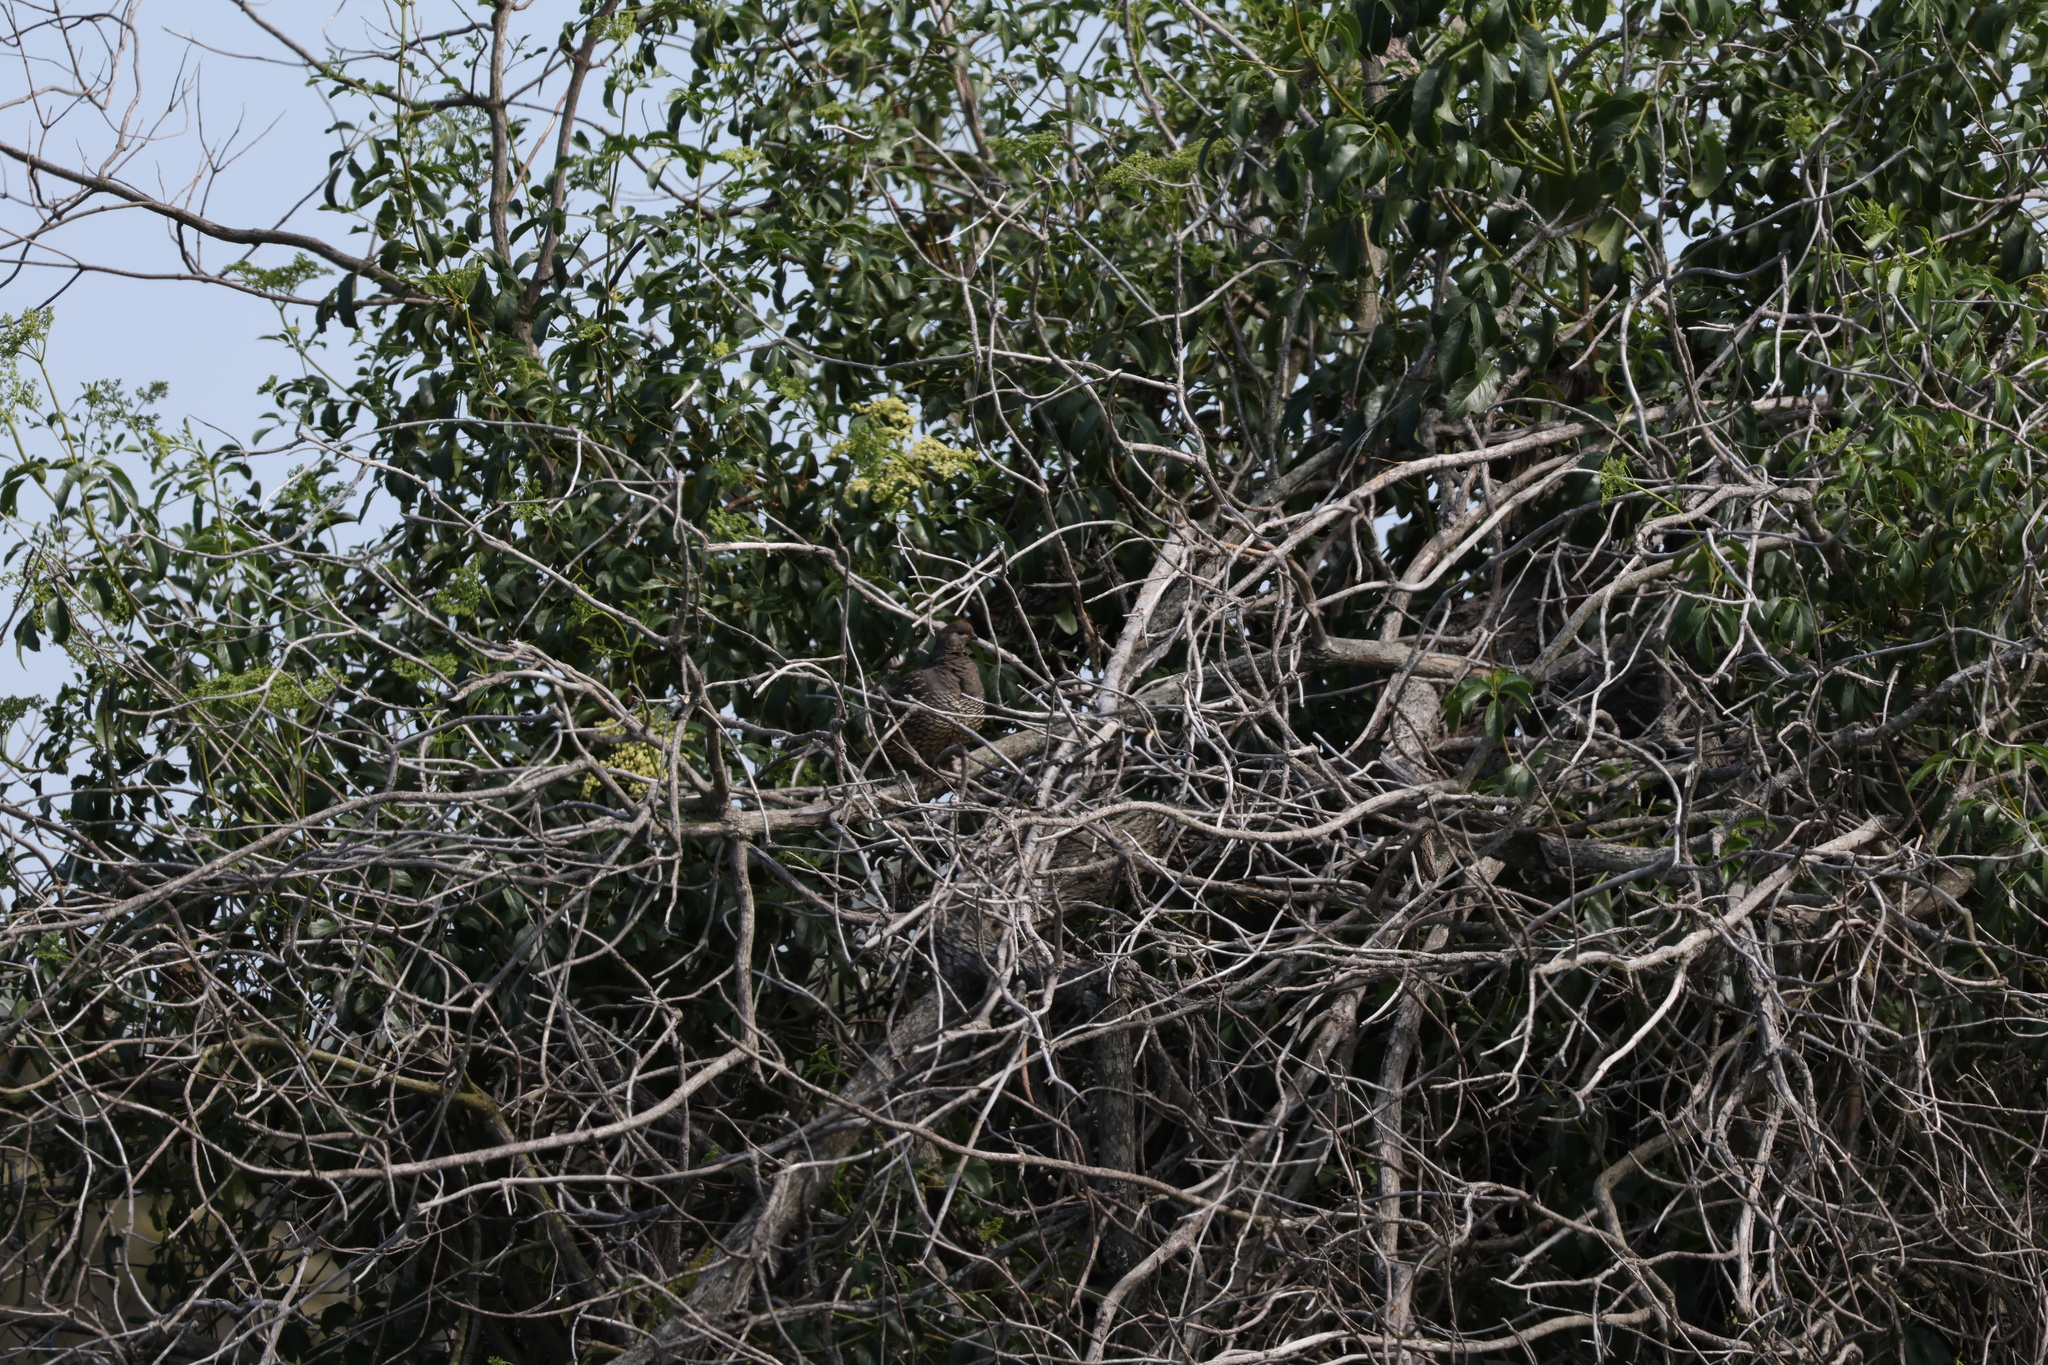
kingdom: Animalia
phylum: Chordata
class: Aves
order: Galliformes
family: Odontophoridae
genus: Callipepla
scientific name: Callipepla californica
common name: California quail
